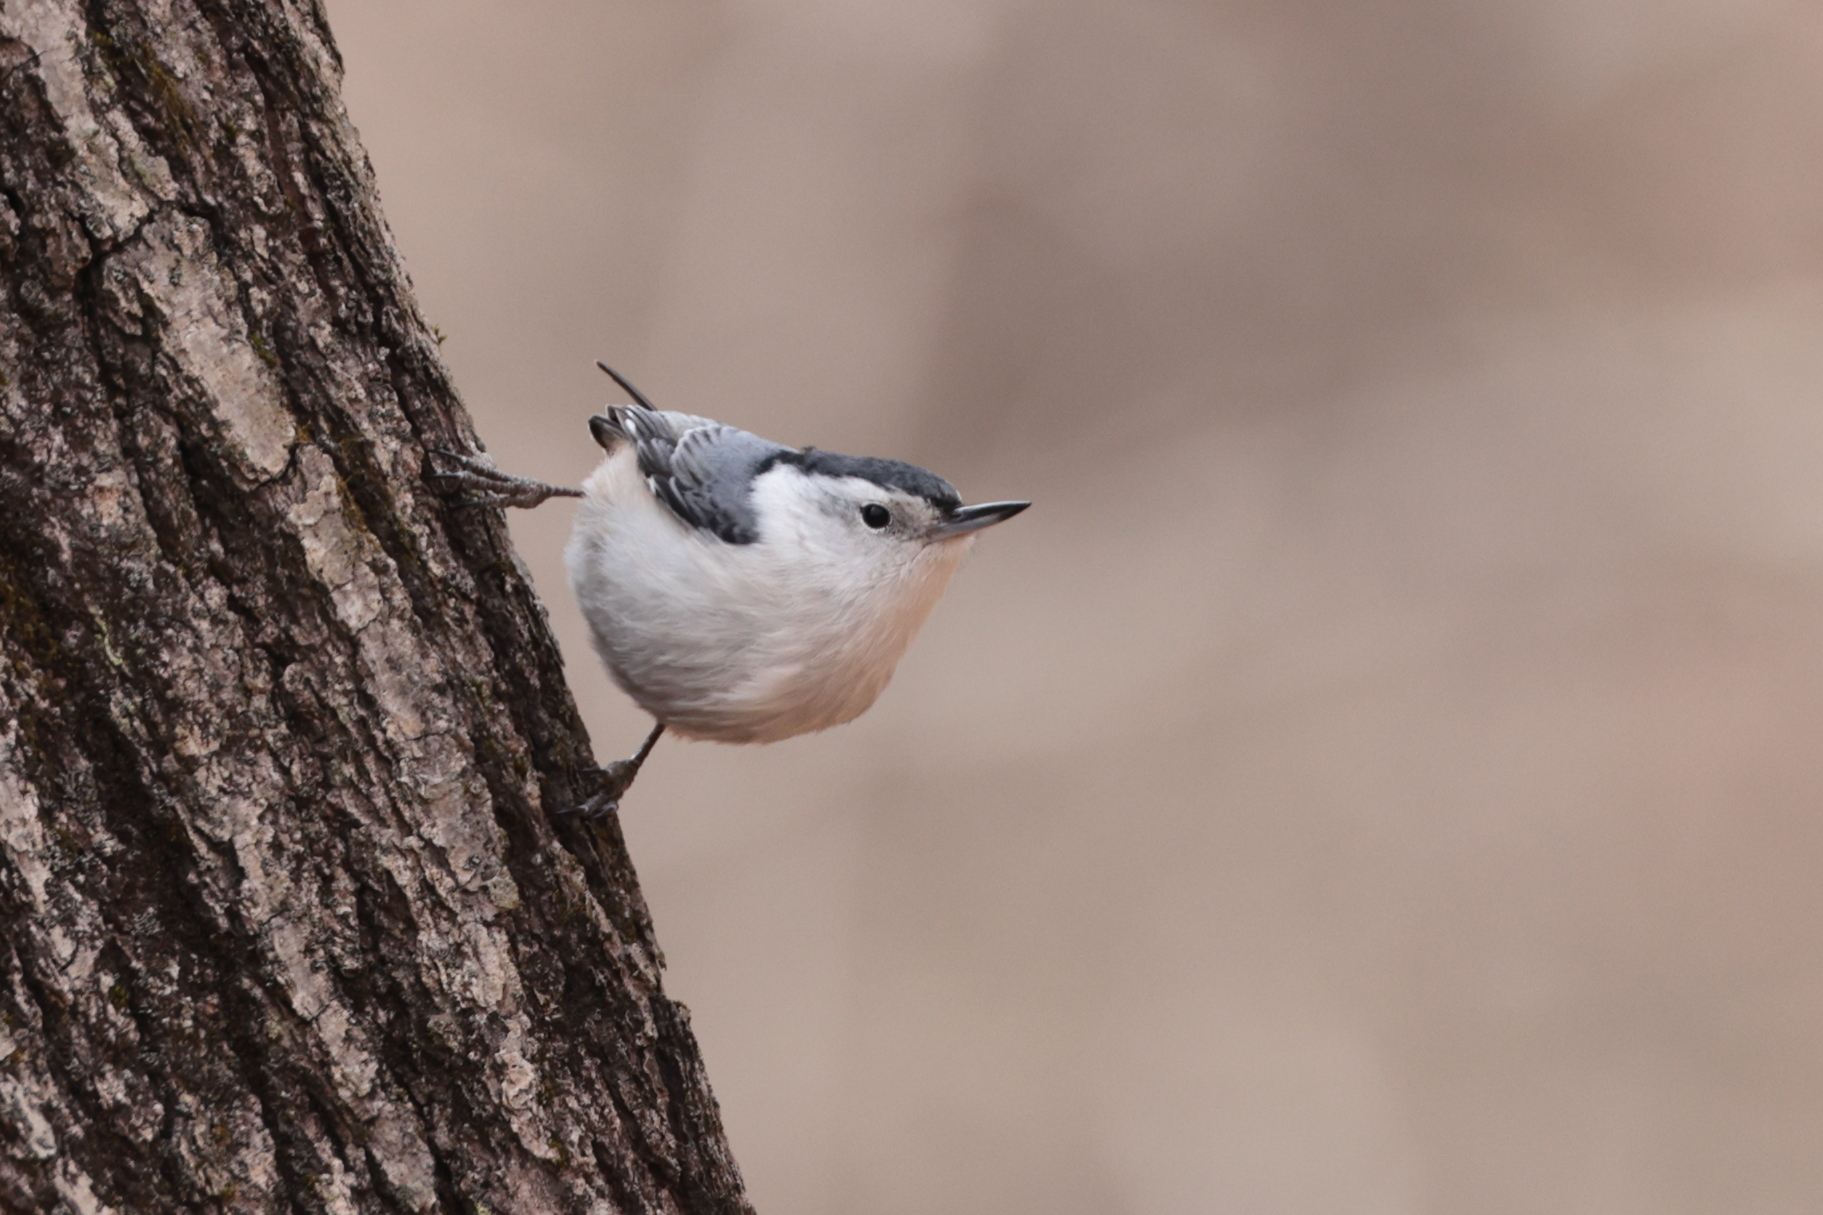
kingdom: Animalia
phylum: Chordata
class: Aves
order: Passeriformes
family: Sittidae
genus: Sitta
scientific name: Sitta carolinensis
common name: White-breasted nuthatch
